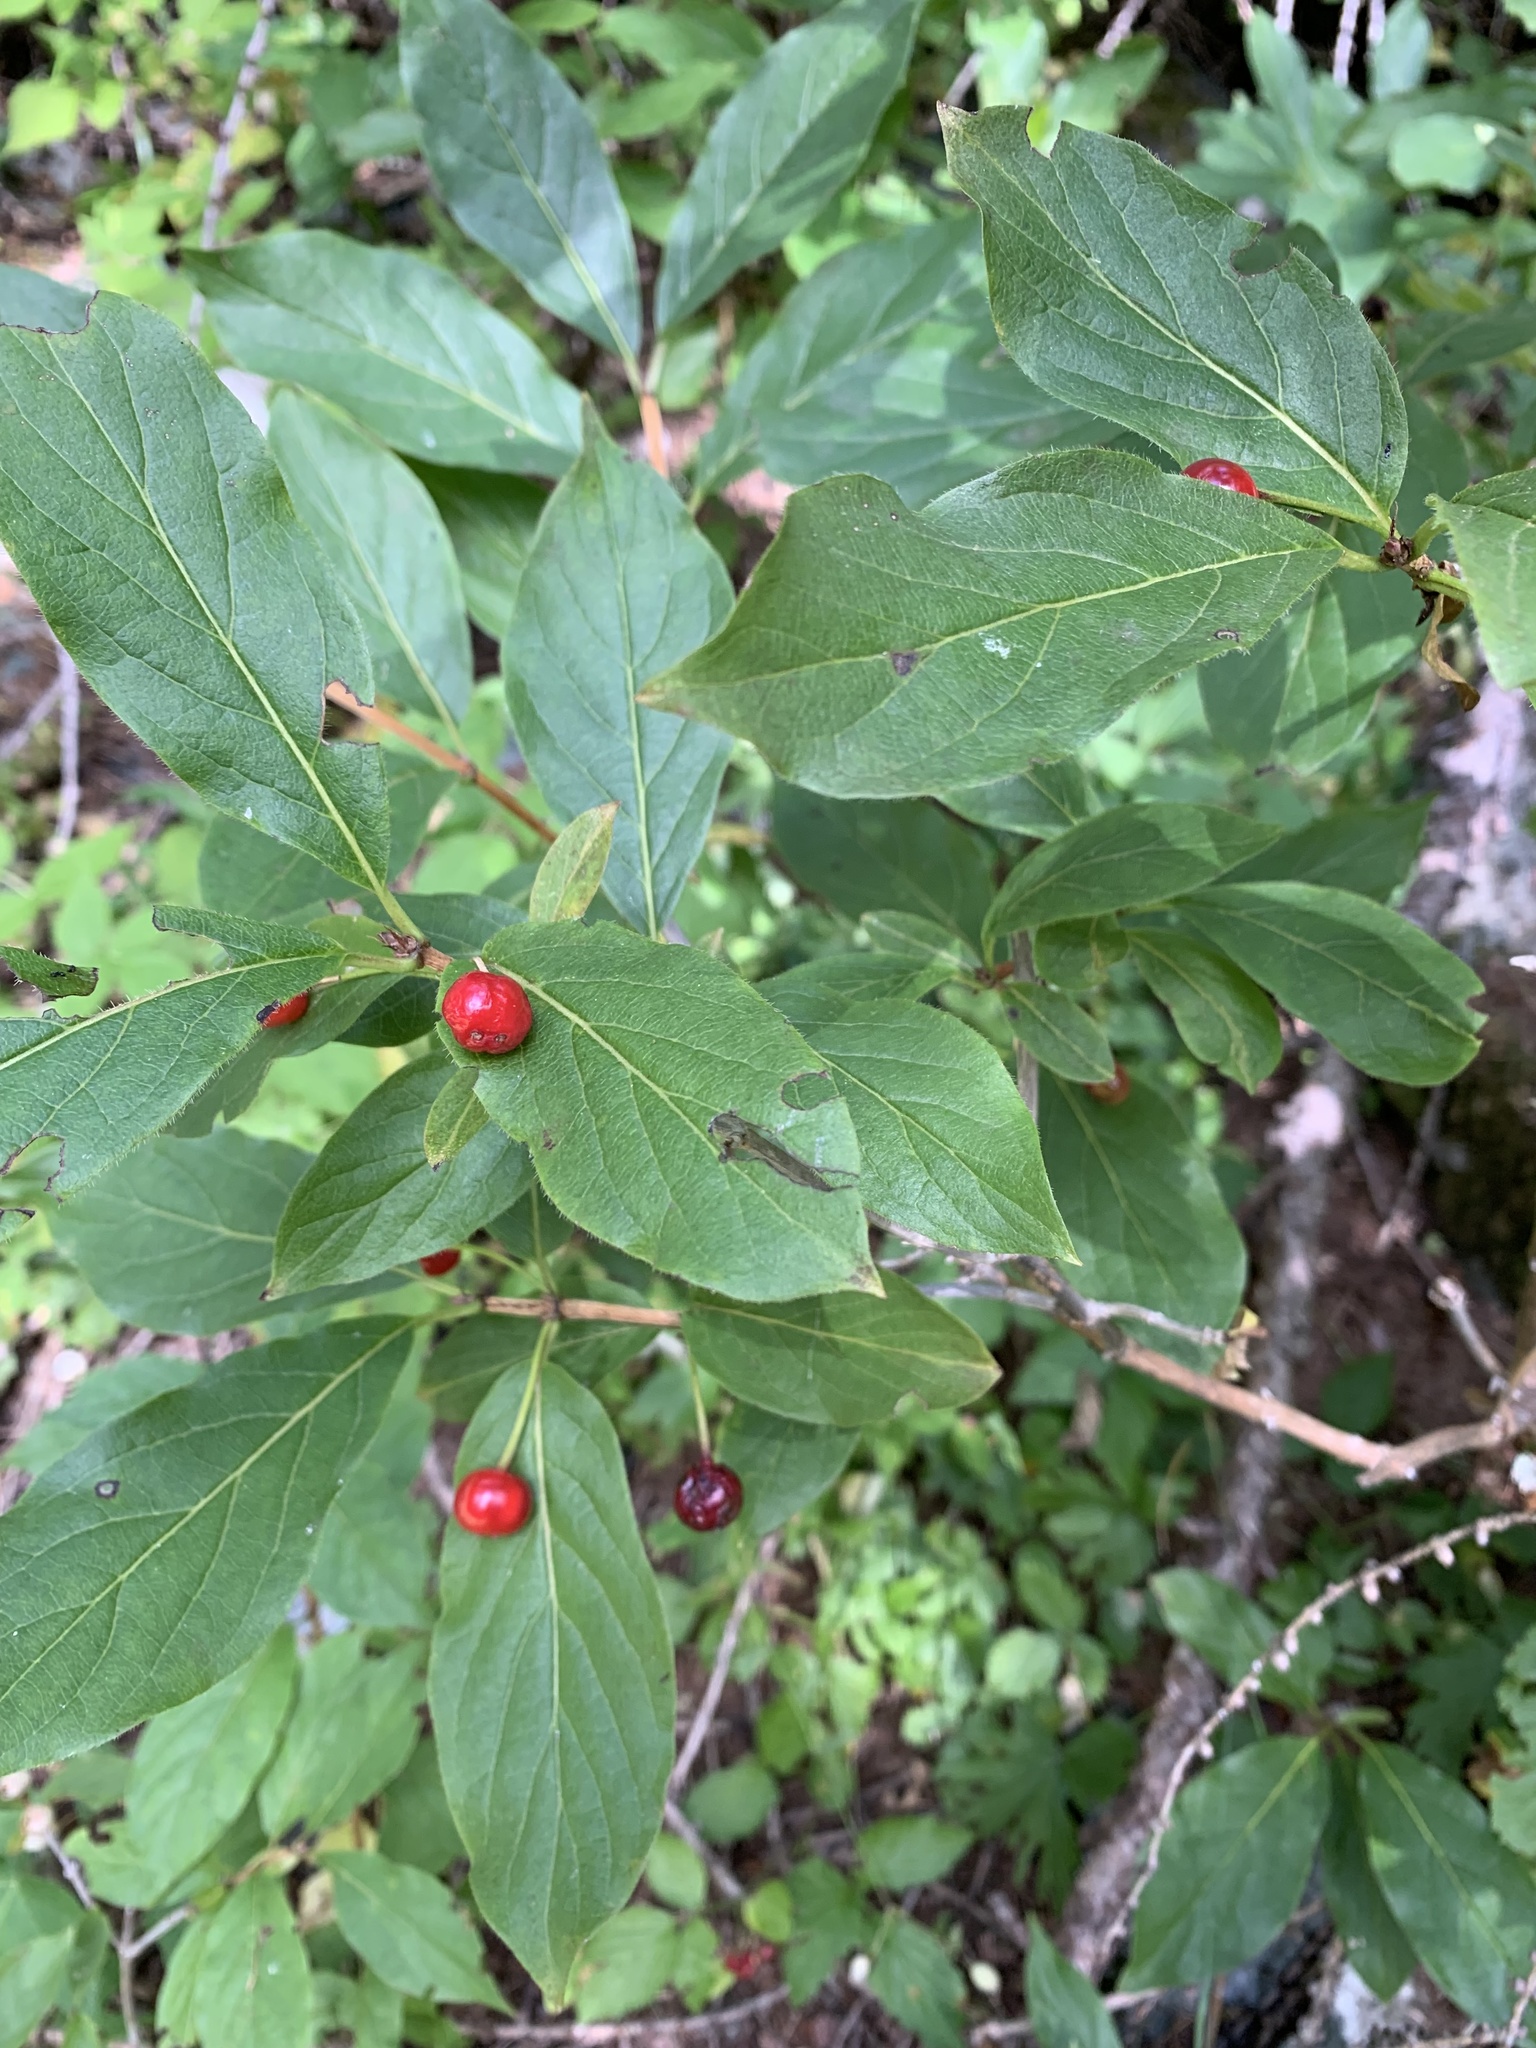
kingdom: Plantae
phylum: Tracheophyta
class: Magnoliopsida
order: Dipsacales
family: Caprifoliaceae
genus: Lonicera
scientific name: Lonicera alpigena
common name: Alpine honeysuckle
